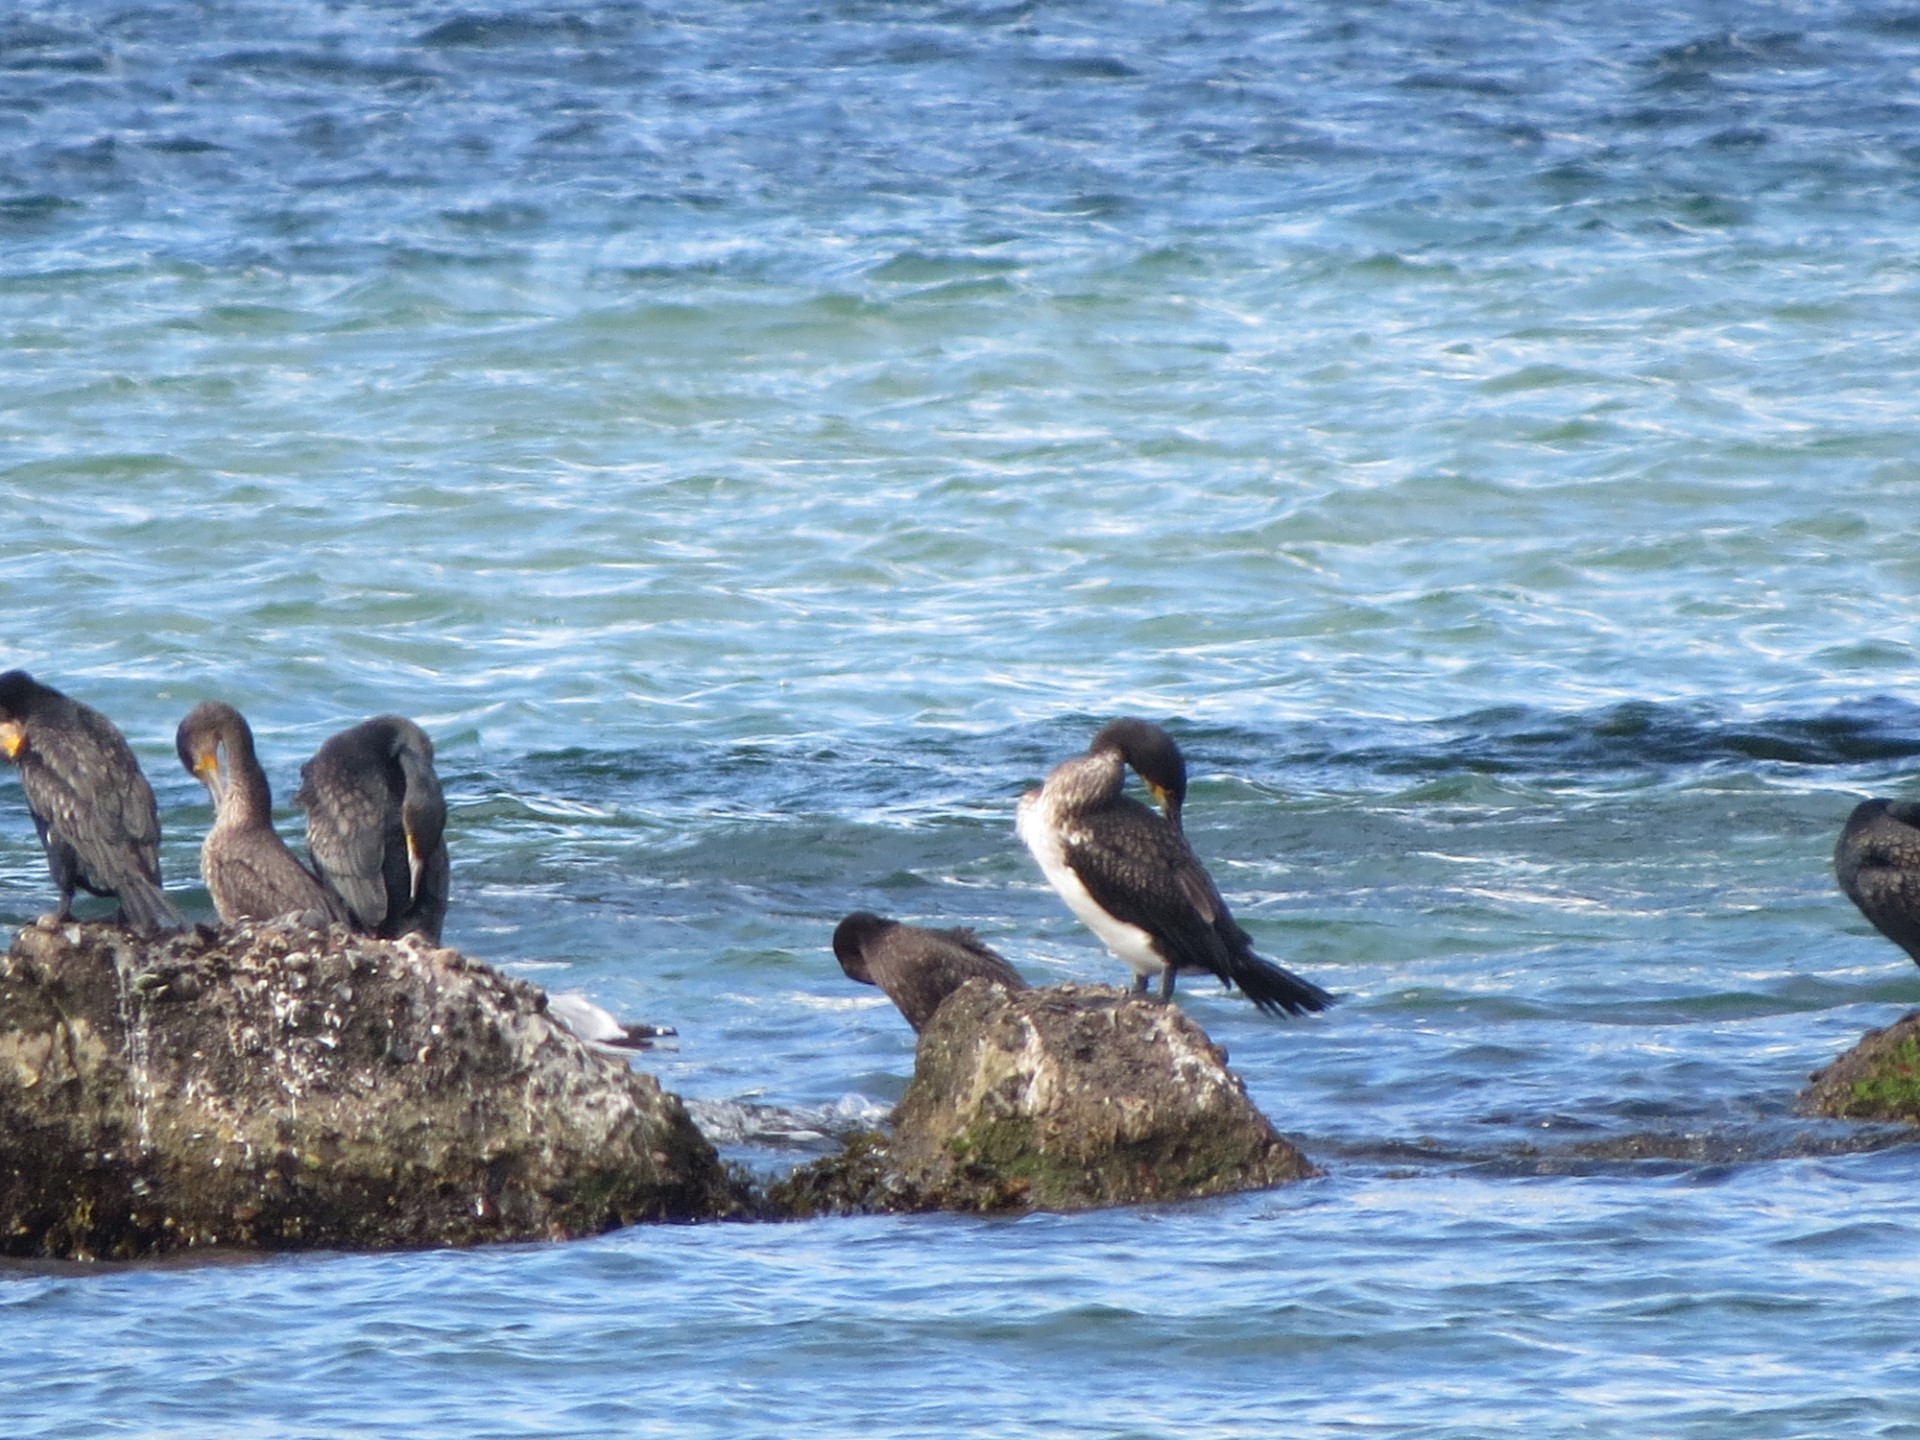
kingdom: Animalia
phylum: Chordata
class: Aves
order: Suliformes
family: Phalacrocoracidae
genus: Phalacrocorax
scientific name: Phalacrocorax carbo
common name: Great cormorant
